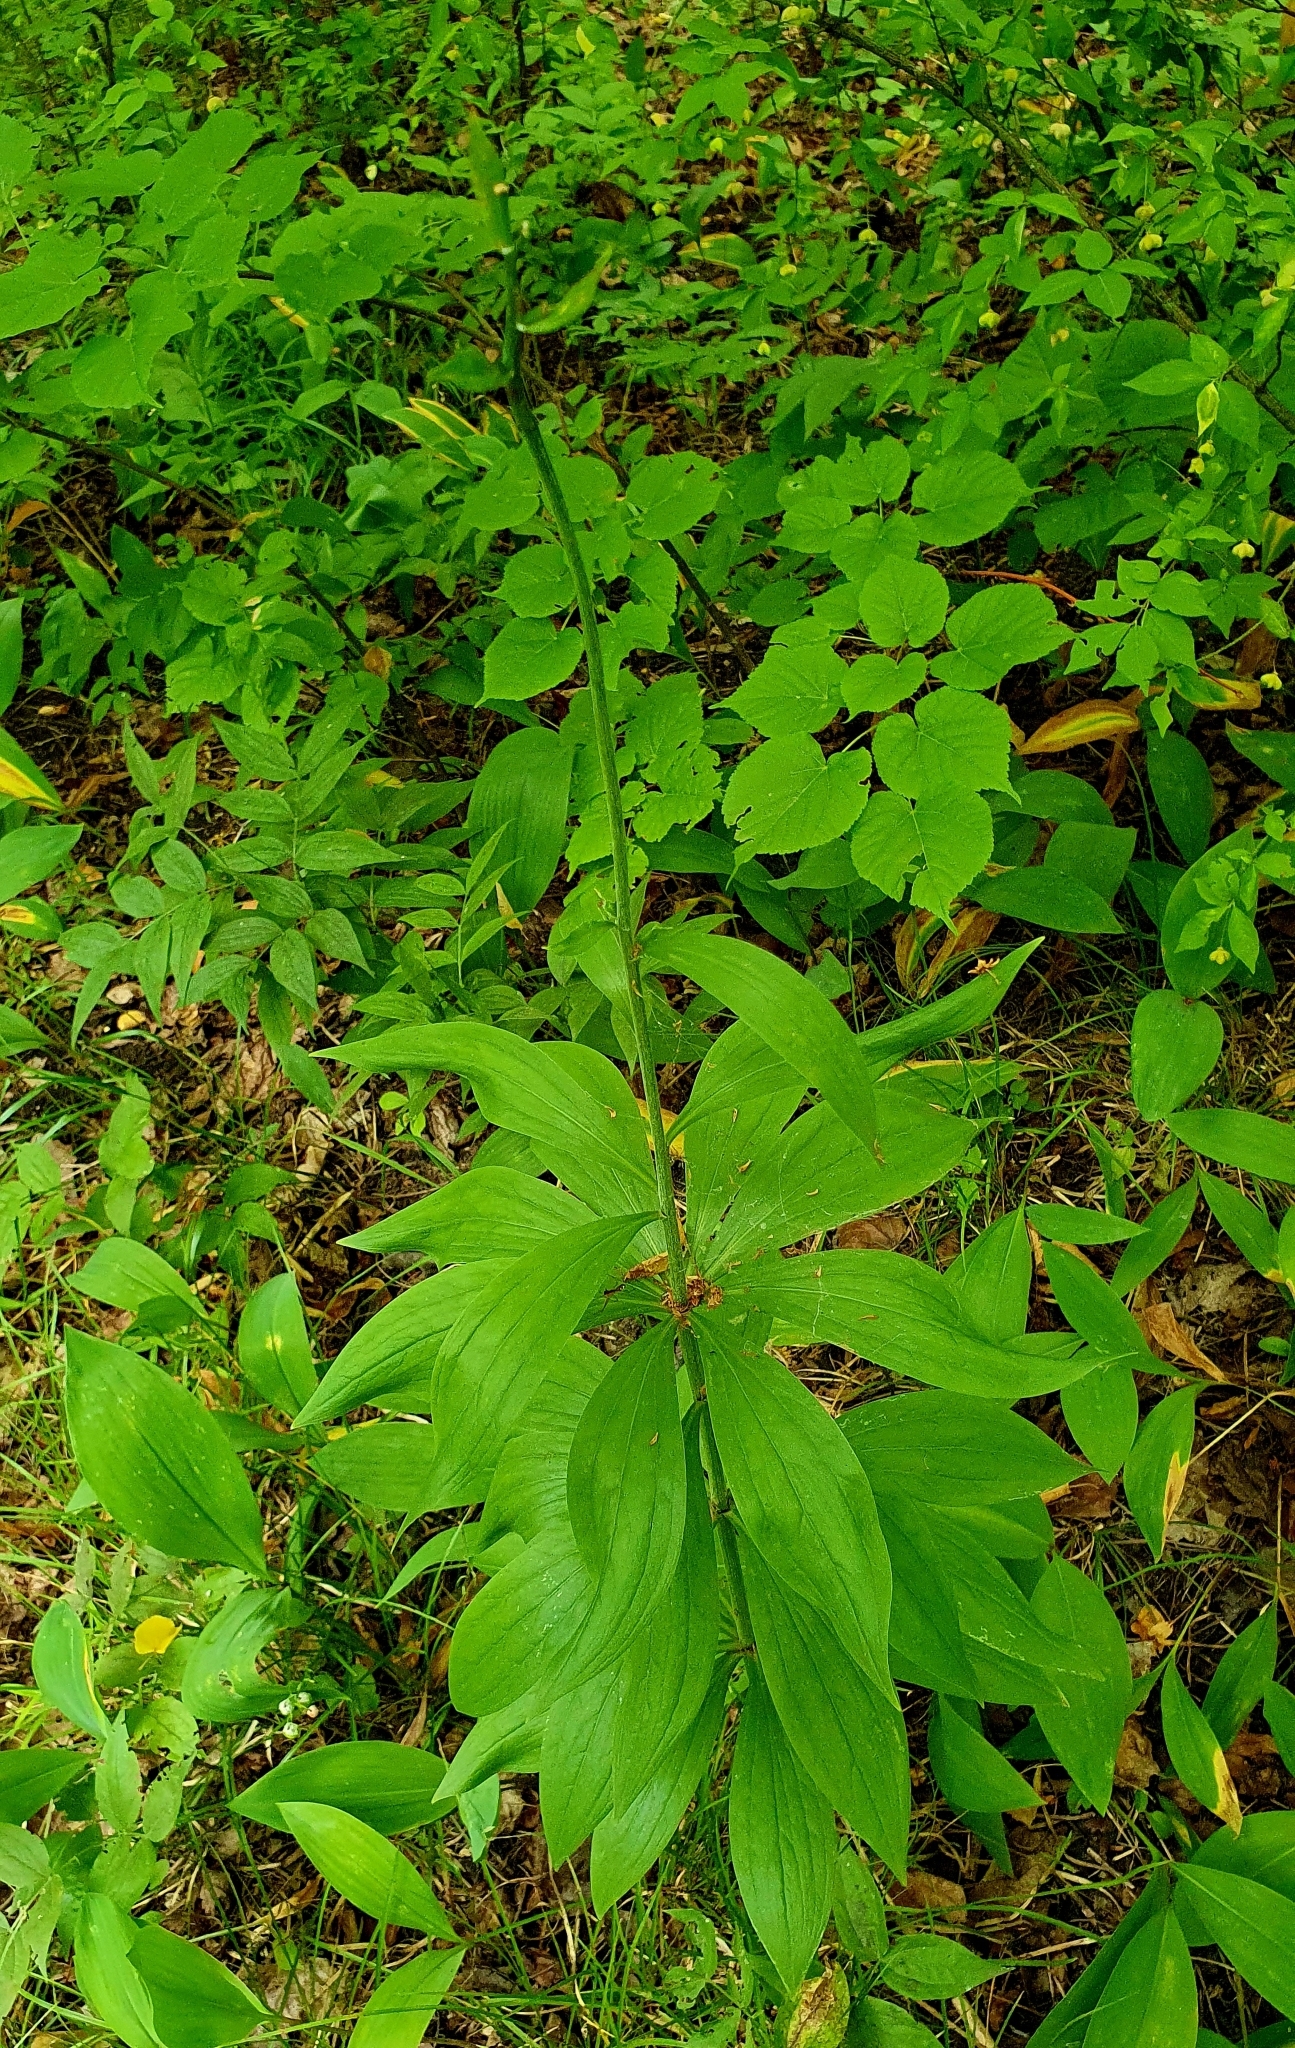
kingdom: Plantae
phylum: Tracheophyta
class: Liliopsida
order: Liliales
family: Liliaceae
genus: Lilium
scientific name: Lilium martagon
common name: Martagon lily
